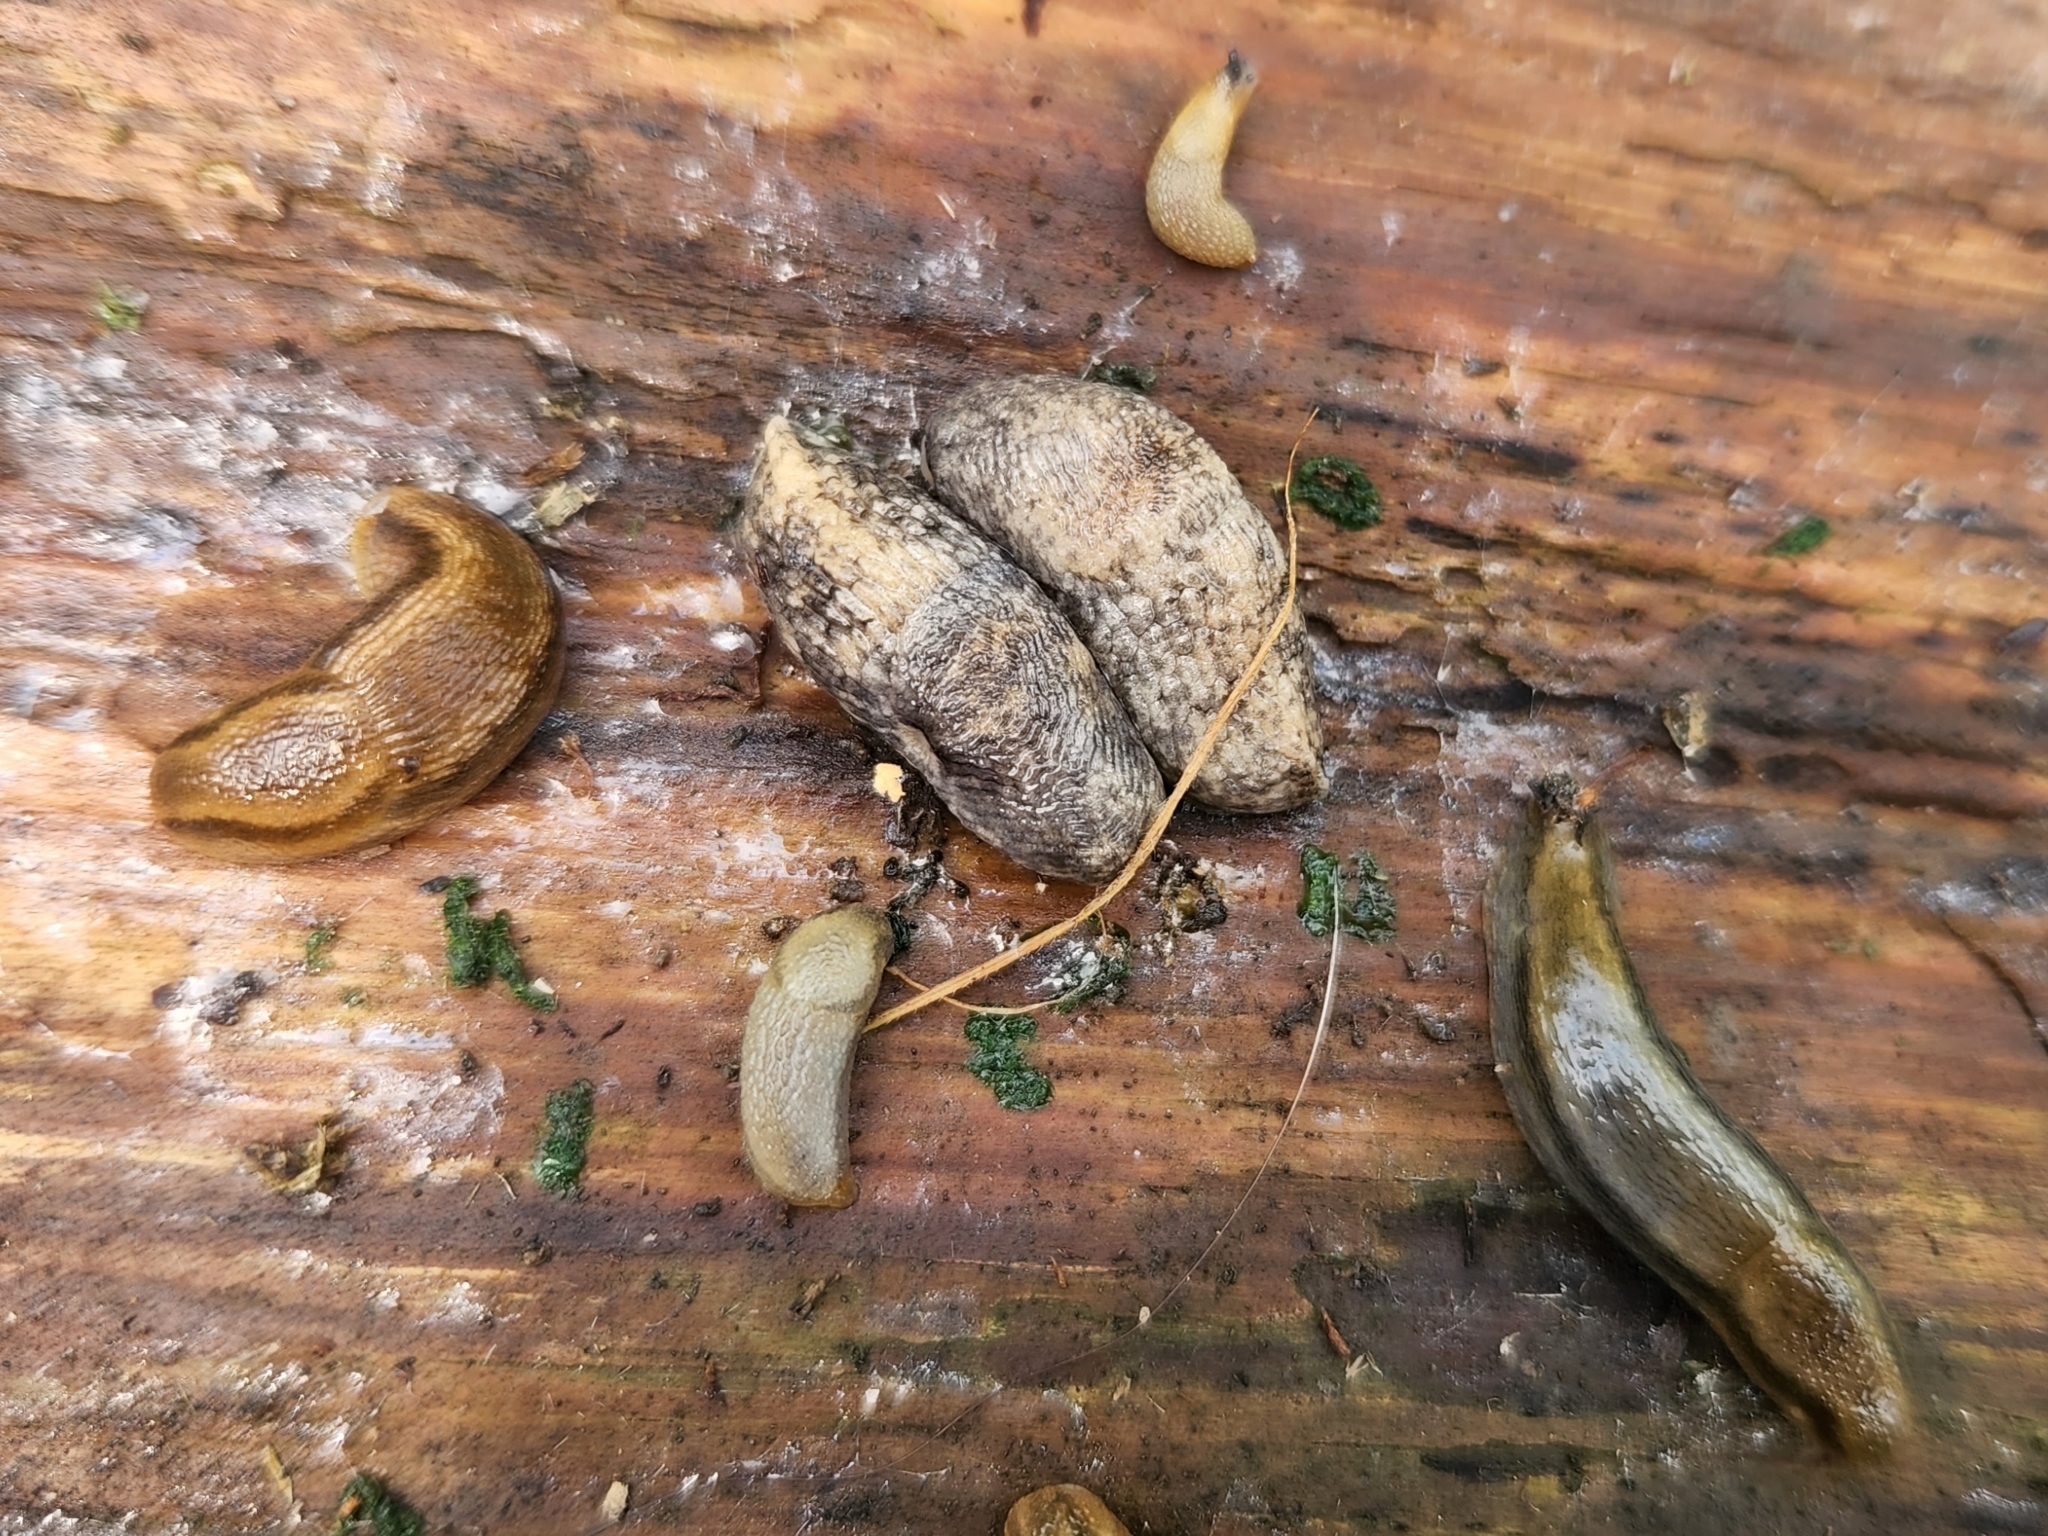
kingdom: Animalia
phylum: Mollusca
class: Gastropoda
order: Stylommatophora
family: Agriolimacidae
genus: Deroceras
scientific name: Deroceras reticulatum
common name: Gray field slug
